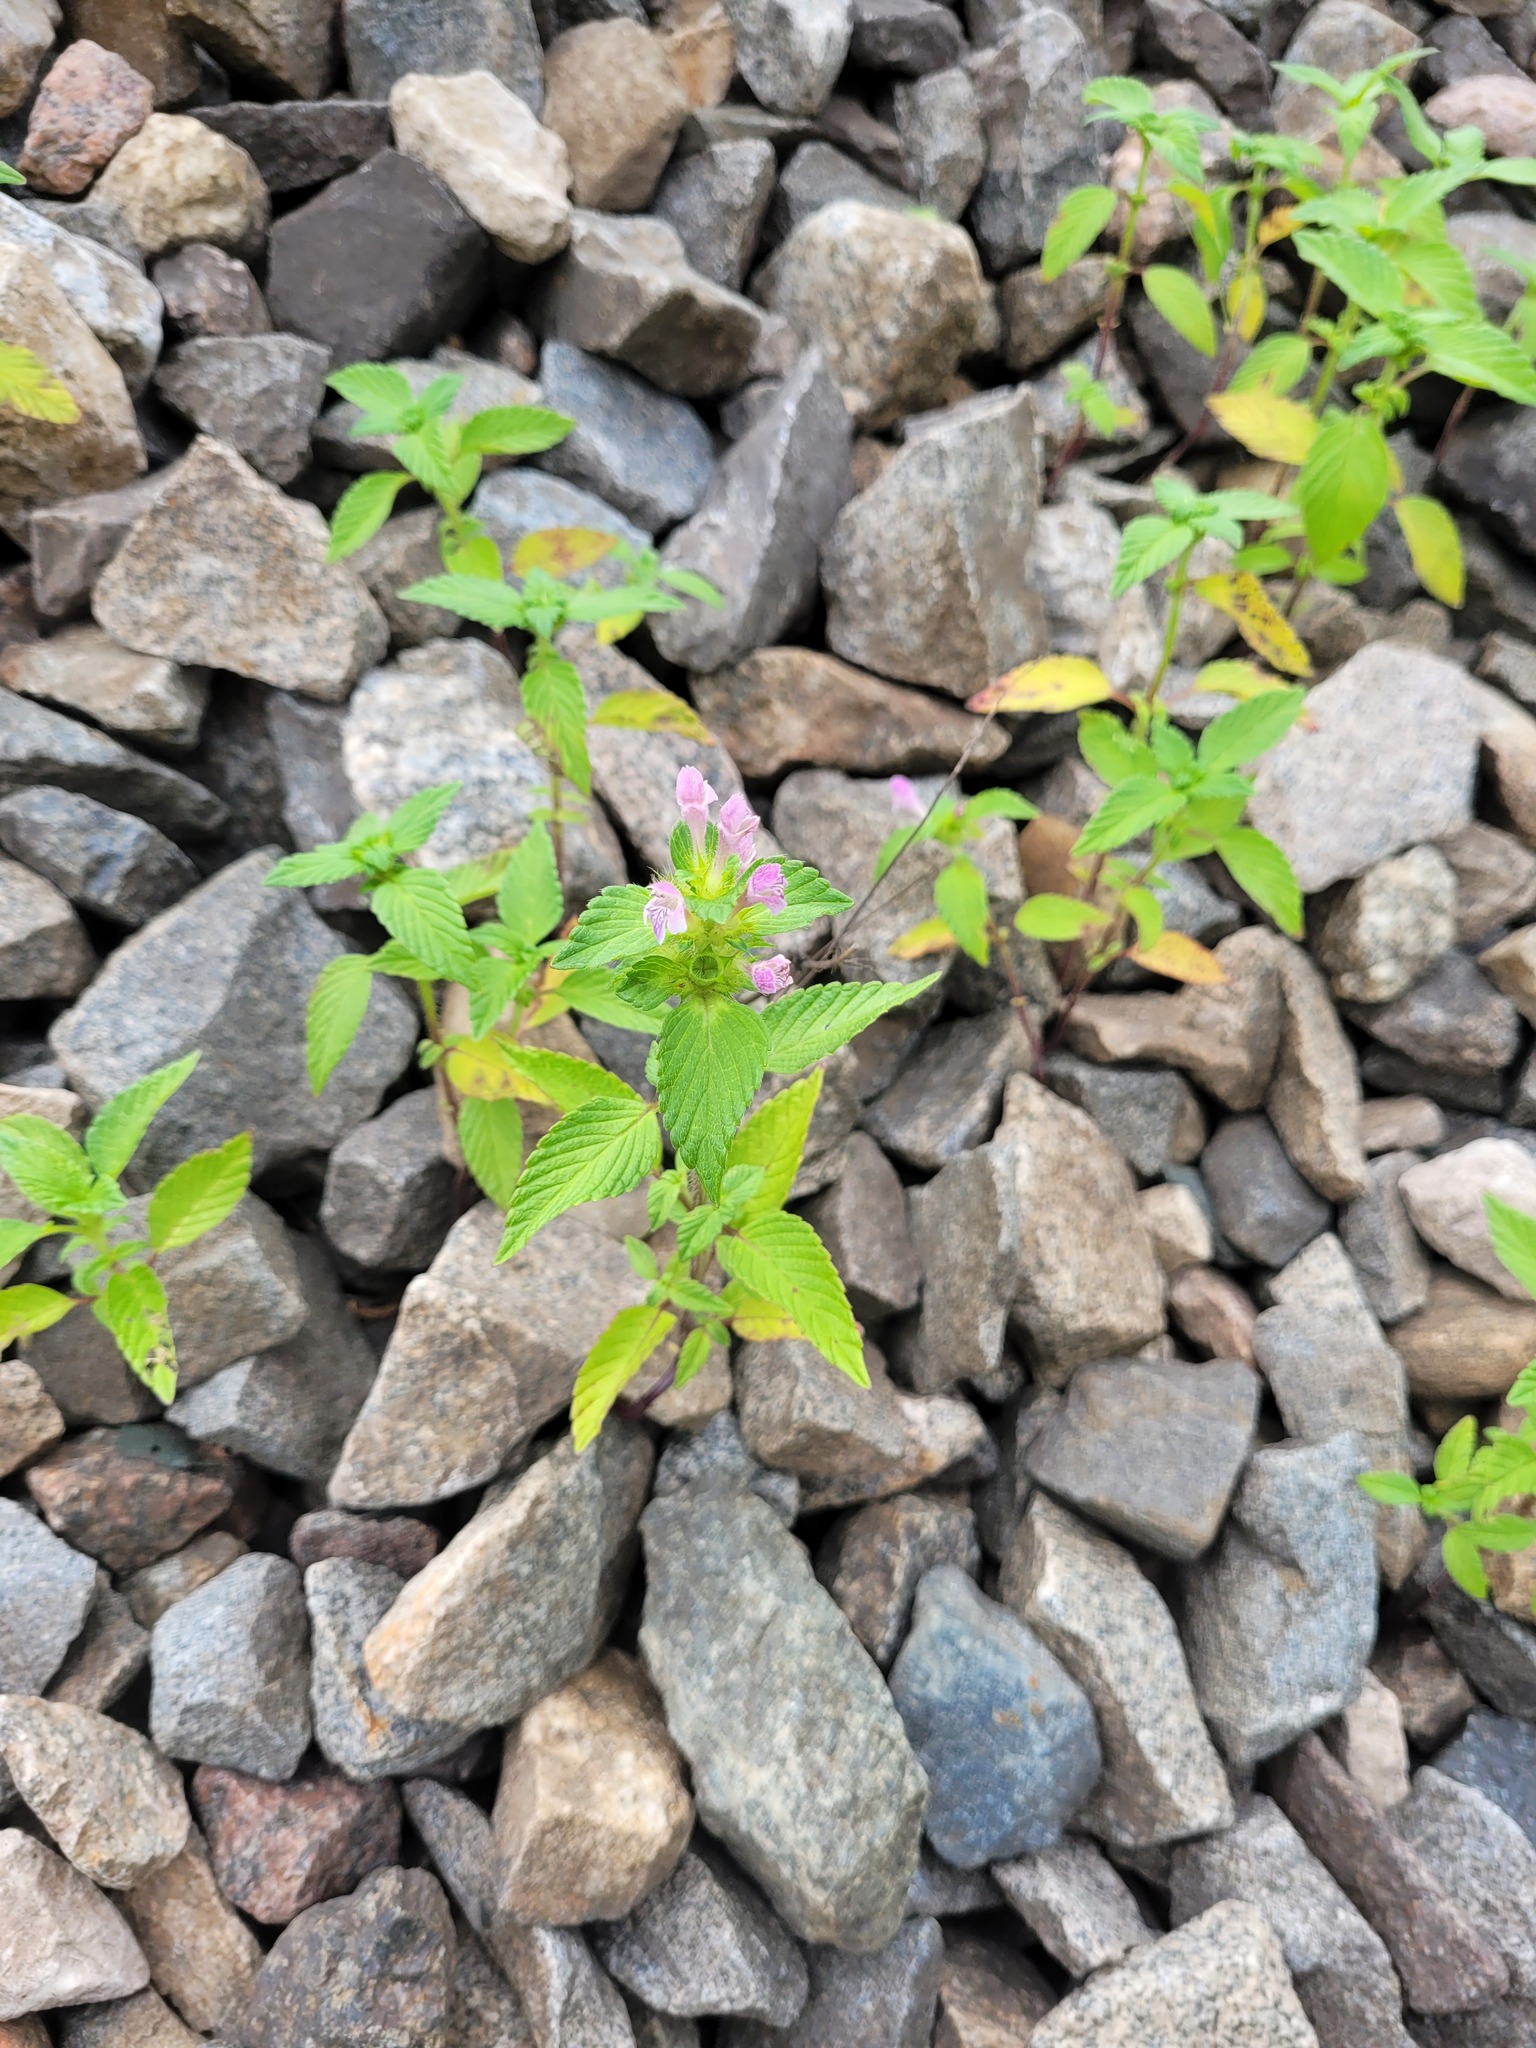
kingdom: Plantae
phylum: Tracheophyta
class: Magnoliopsida
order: Lamiales
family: Lamiaceae
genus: Galeopsis
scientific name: Galeopsis bifida
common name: Bifid hemp-nettle
